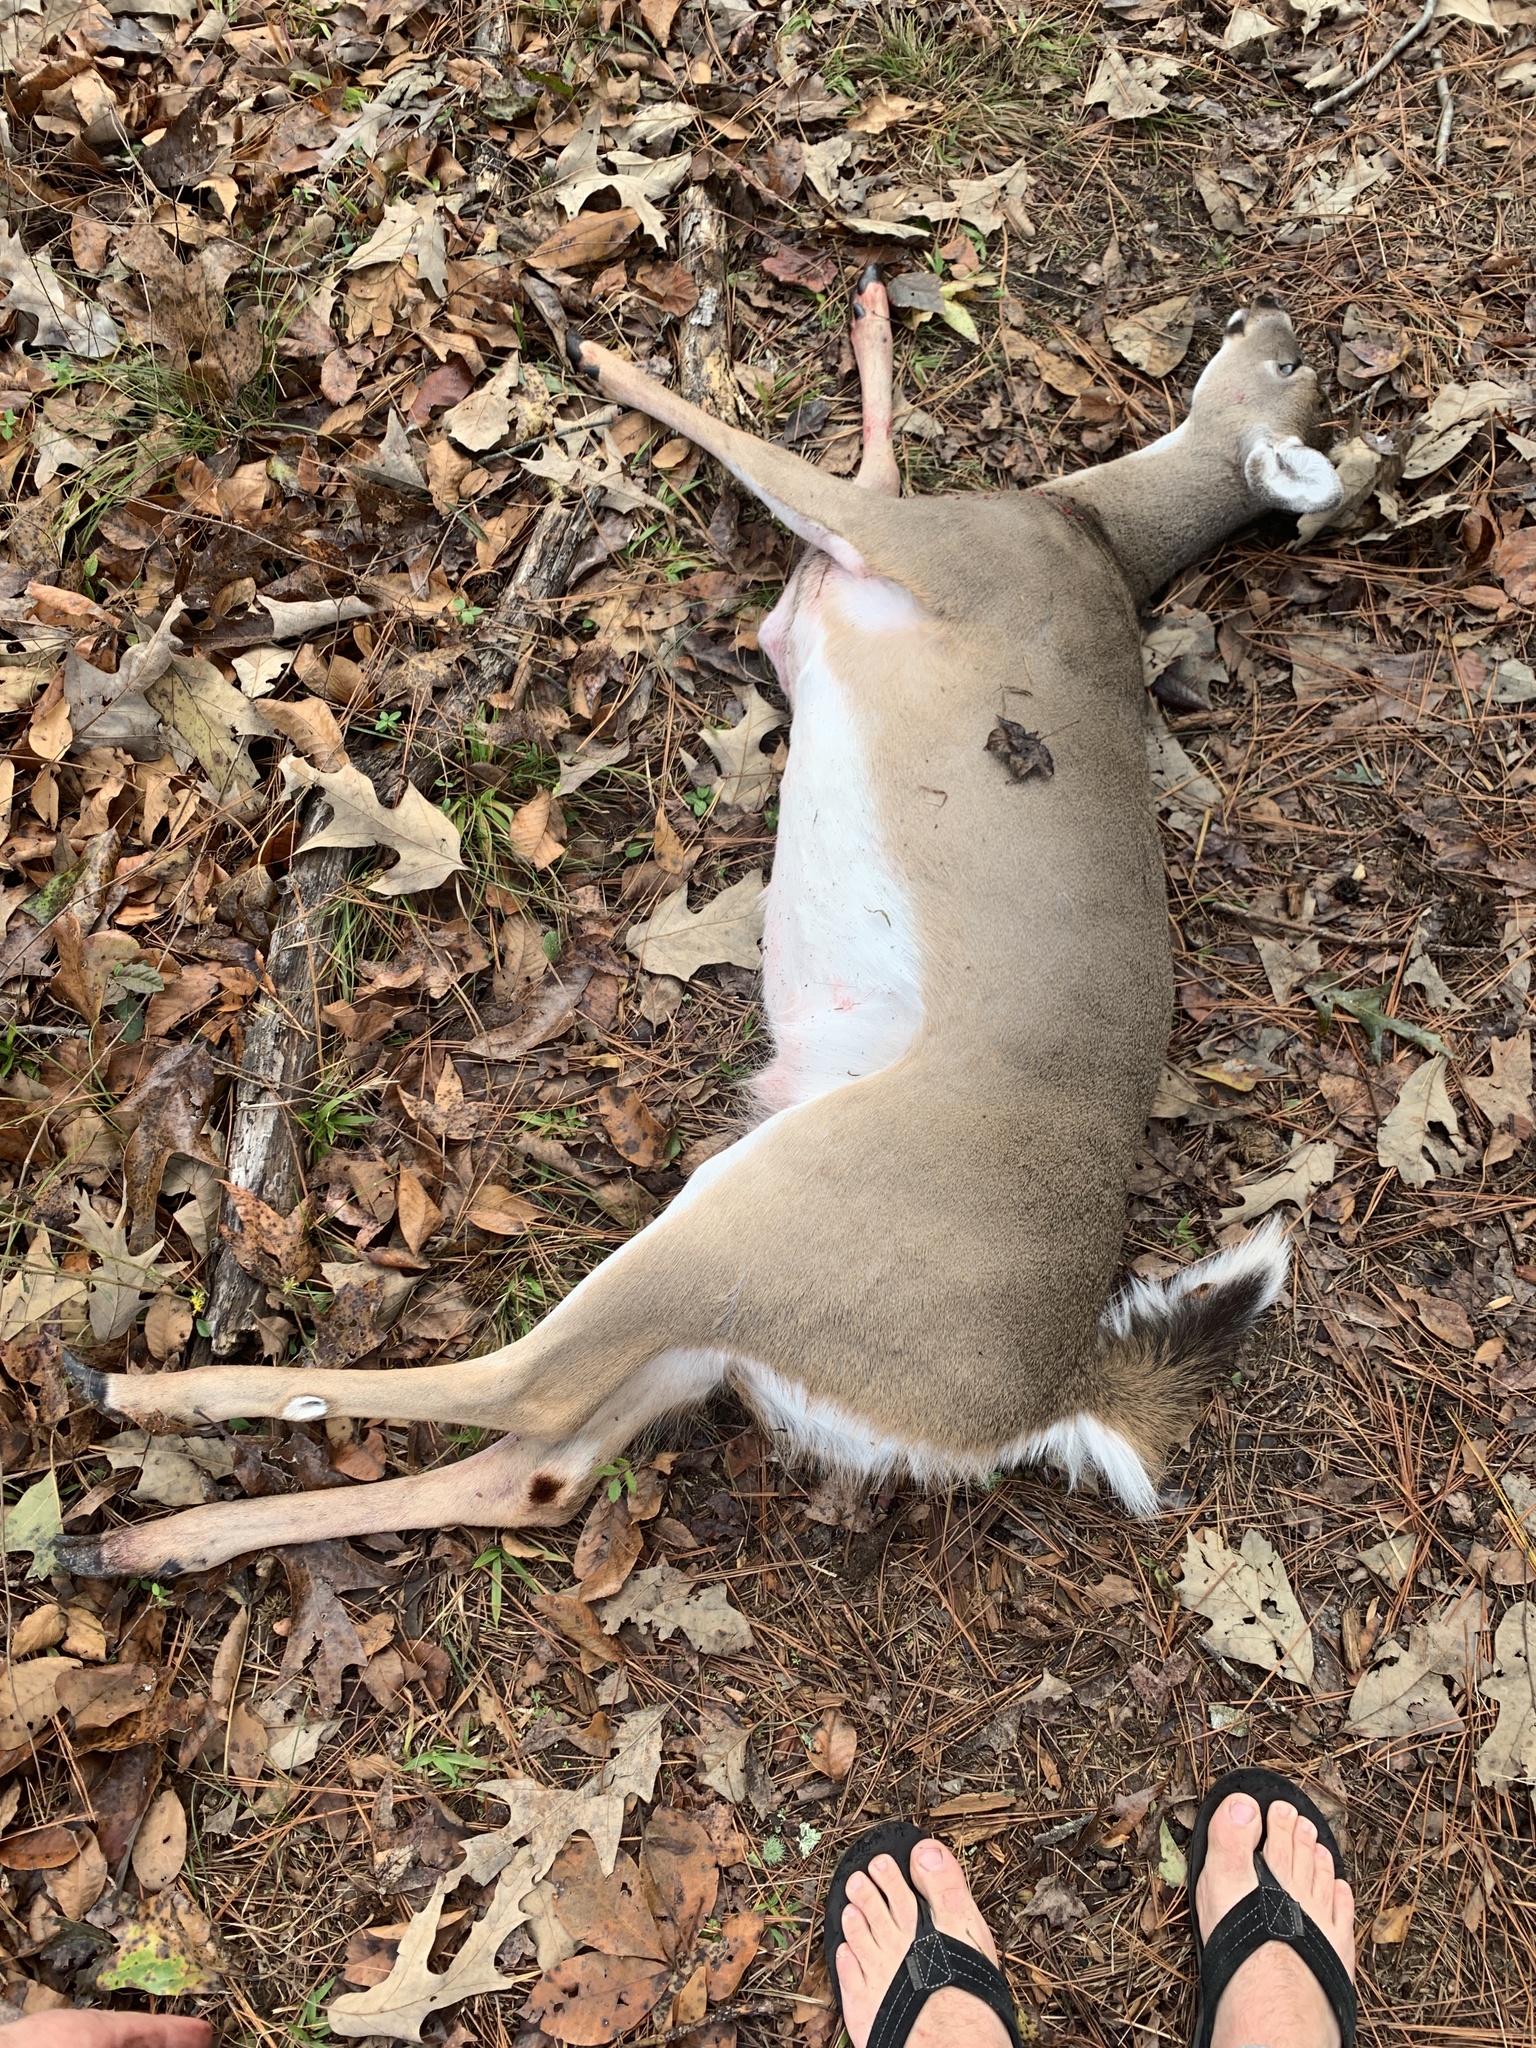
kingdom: Animalia
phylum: Chordata
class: Mammalia
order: Artiodactyla
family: Cervidae
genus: Odocoileus
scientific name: Odocoileus virginianus
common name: White-tailed deer
